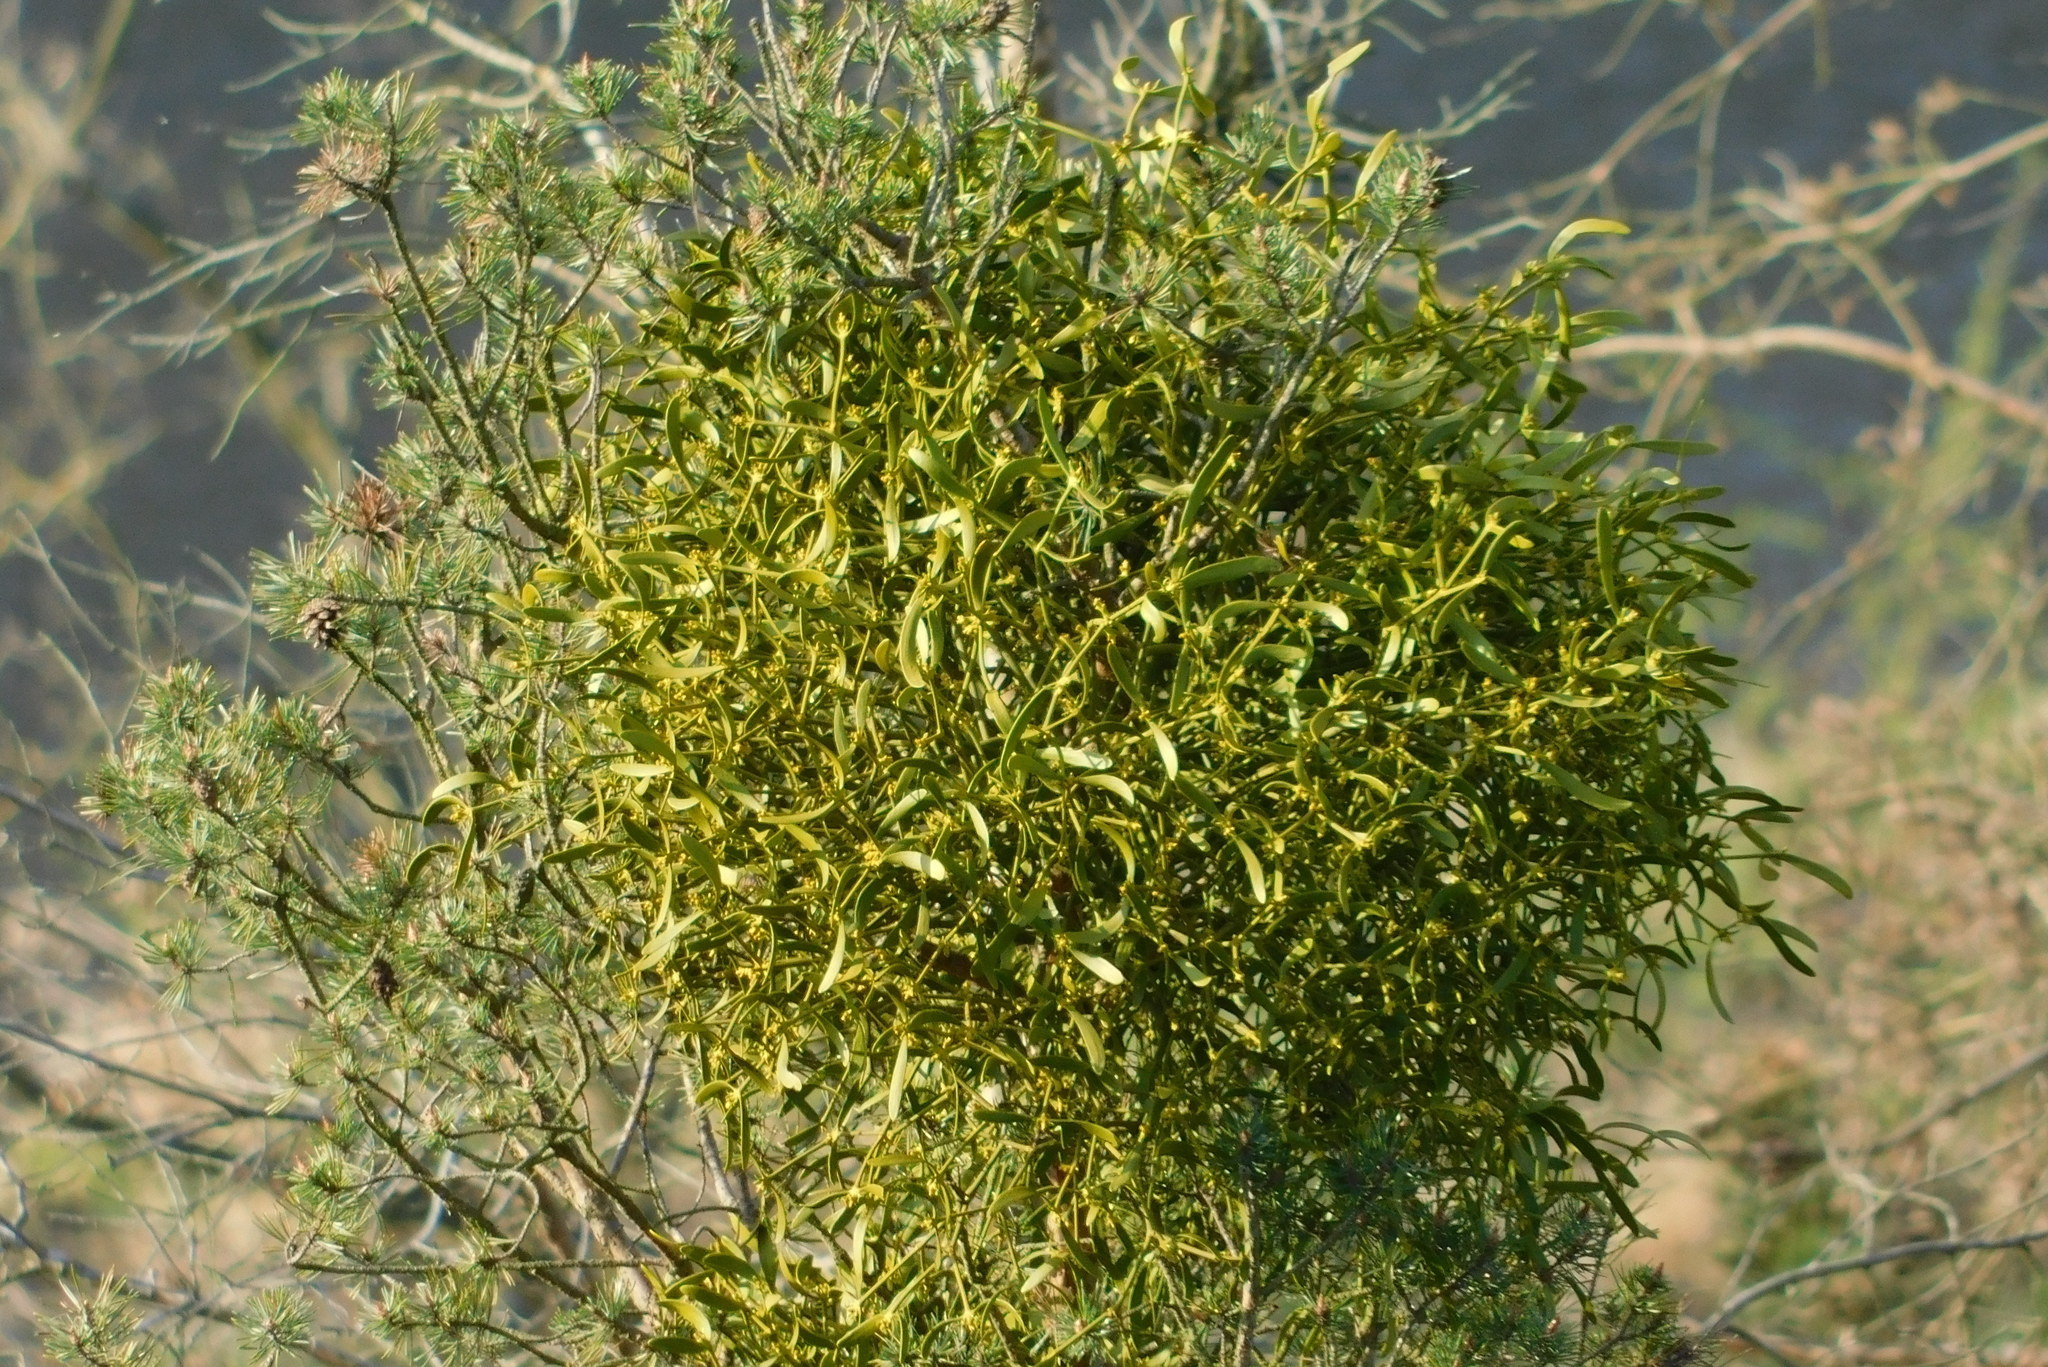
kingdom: Plantae
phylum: Tracheophyta
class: Magnoliopsida
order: Santalales
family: Viscaceae
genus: Viscum
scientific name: Viscum laxum
